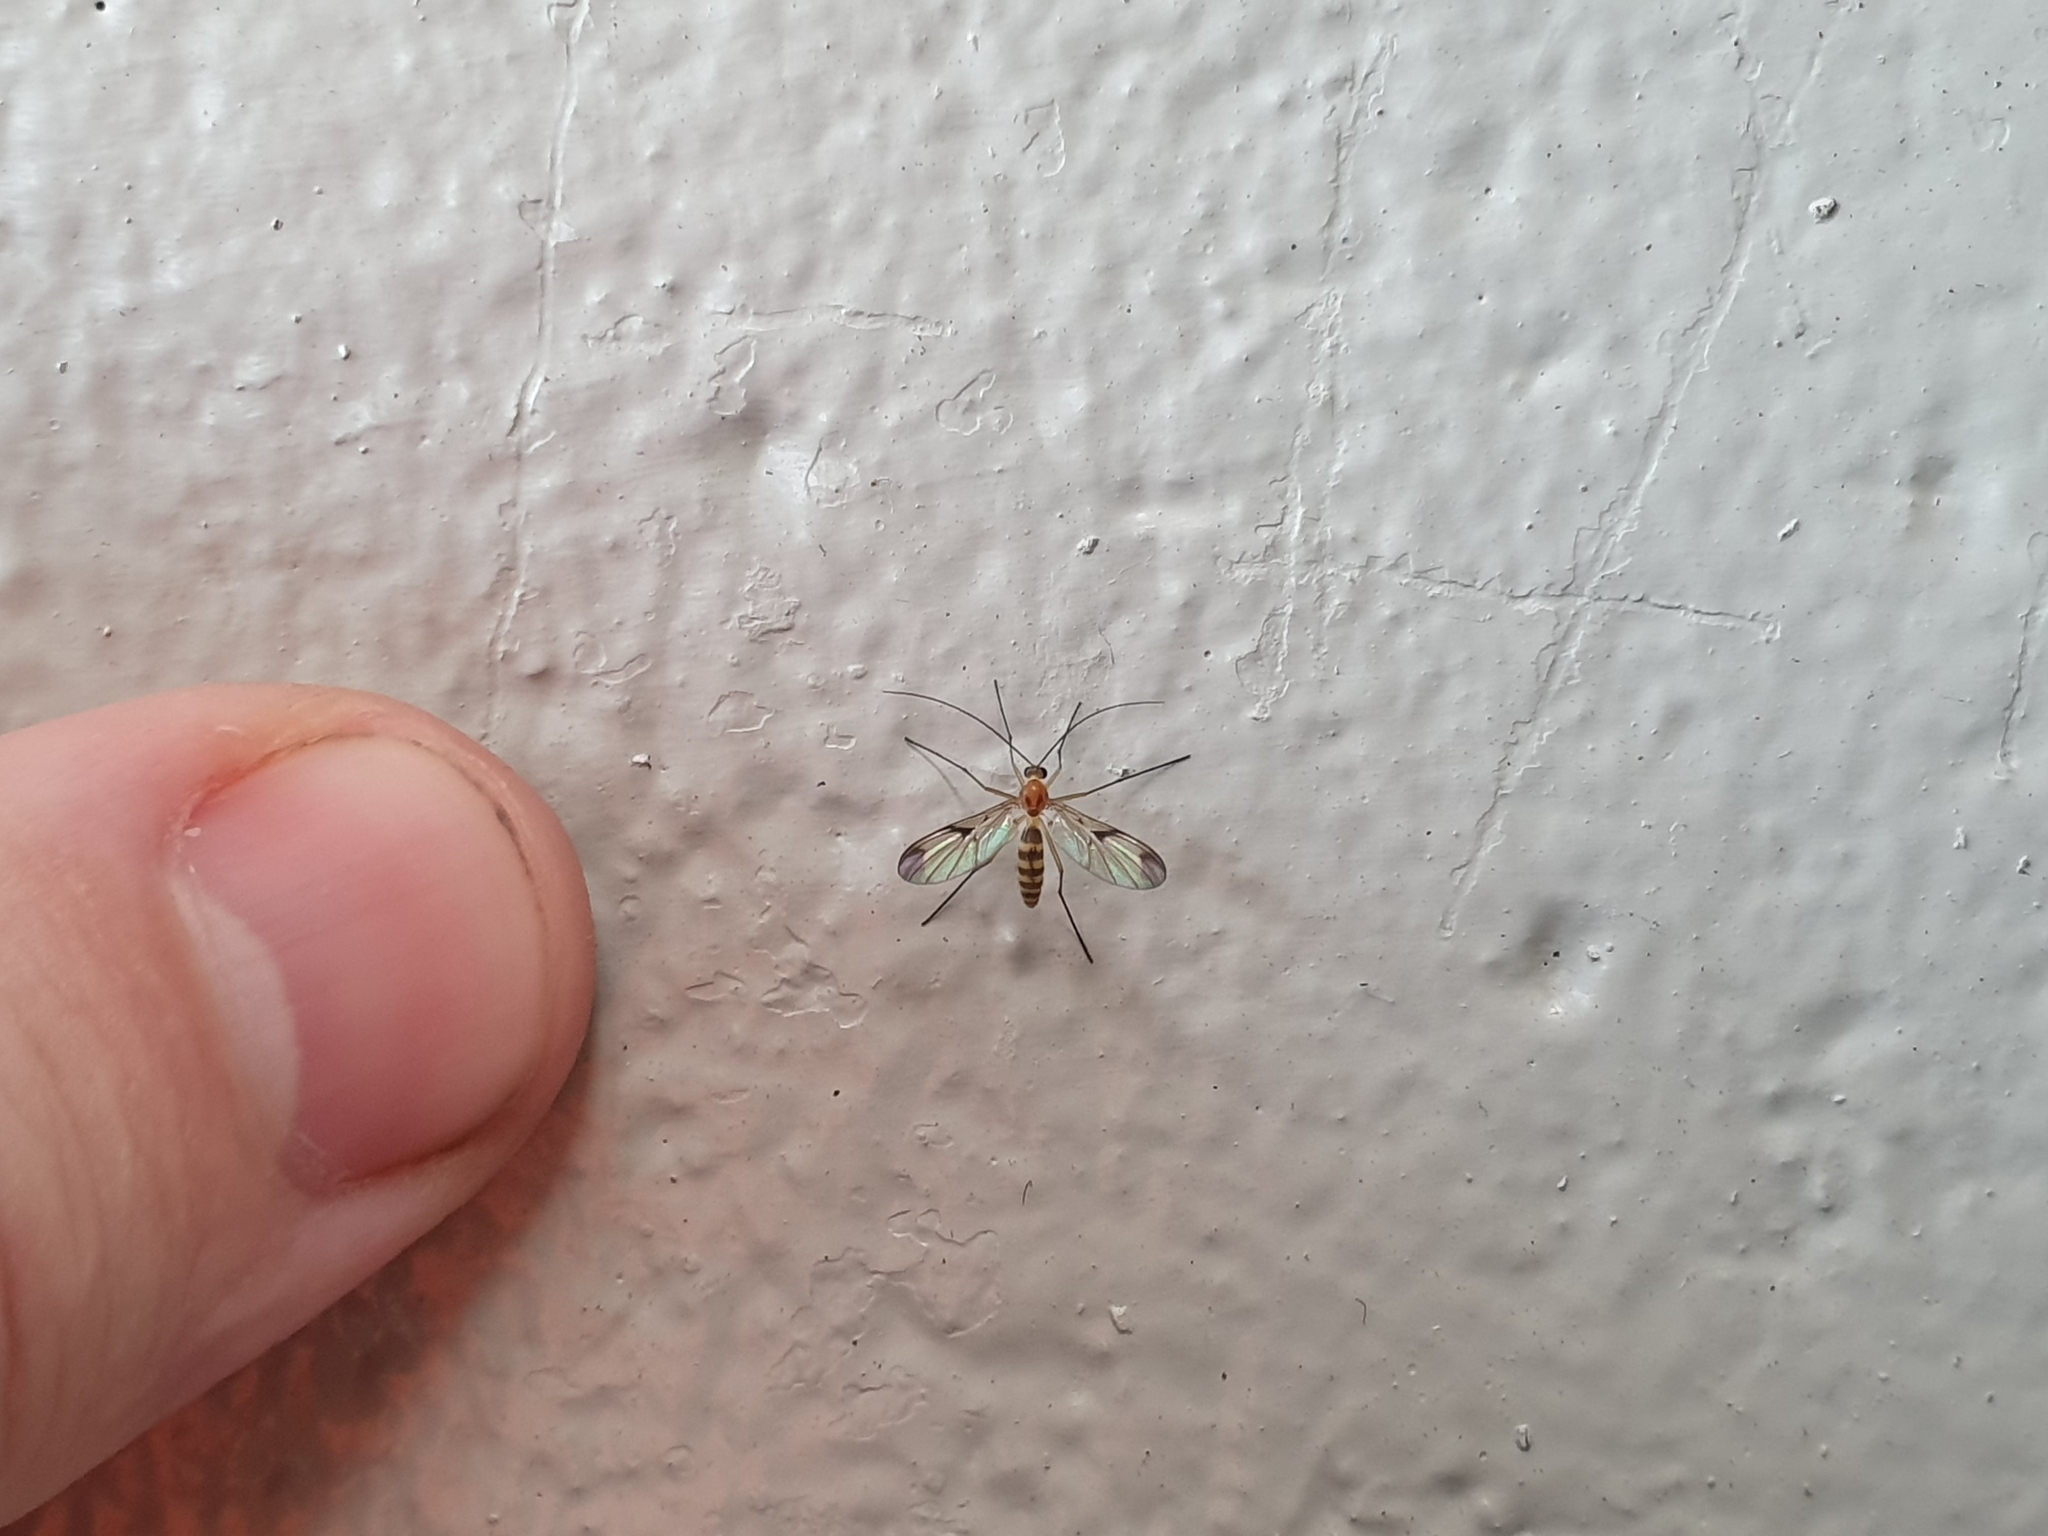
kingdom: Animalia
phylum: Arthropoda
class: Insecta
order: Diptera
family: Keroplatidae
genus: Macrocera
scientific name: Macrocera scoparia
